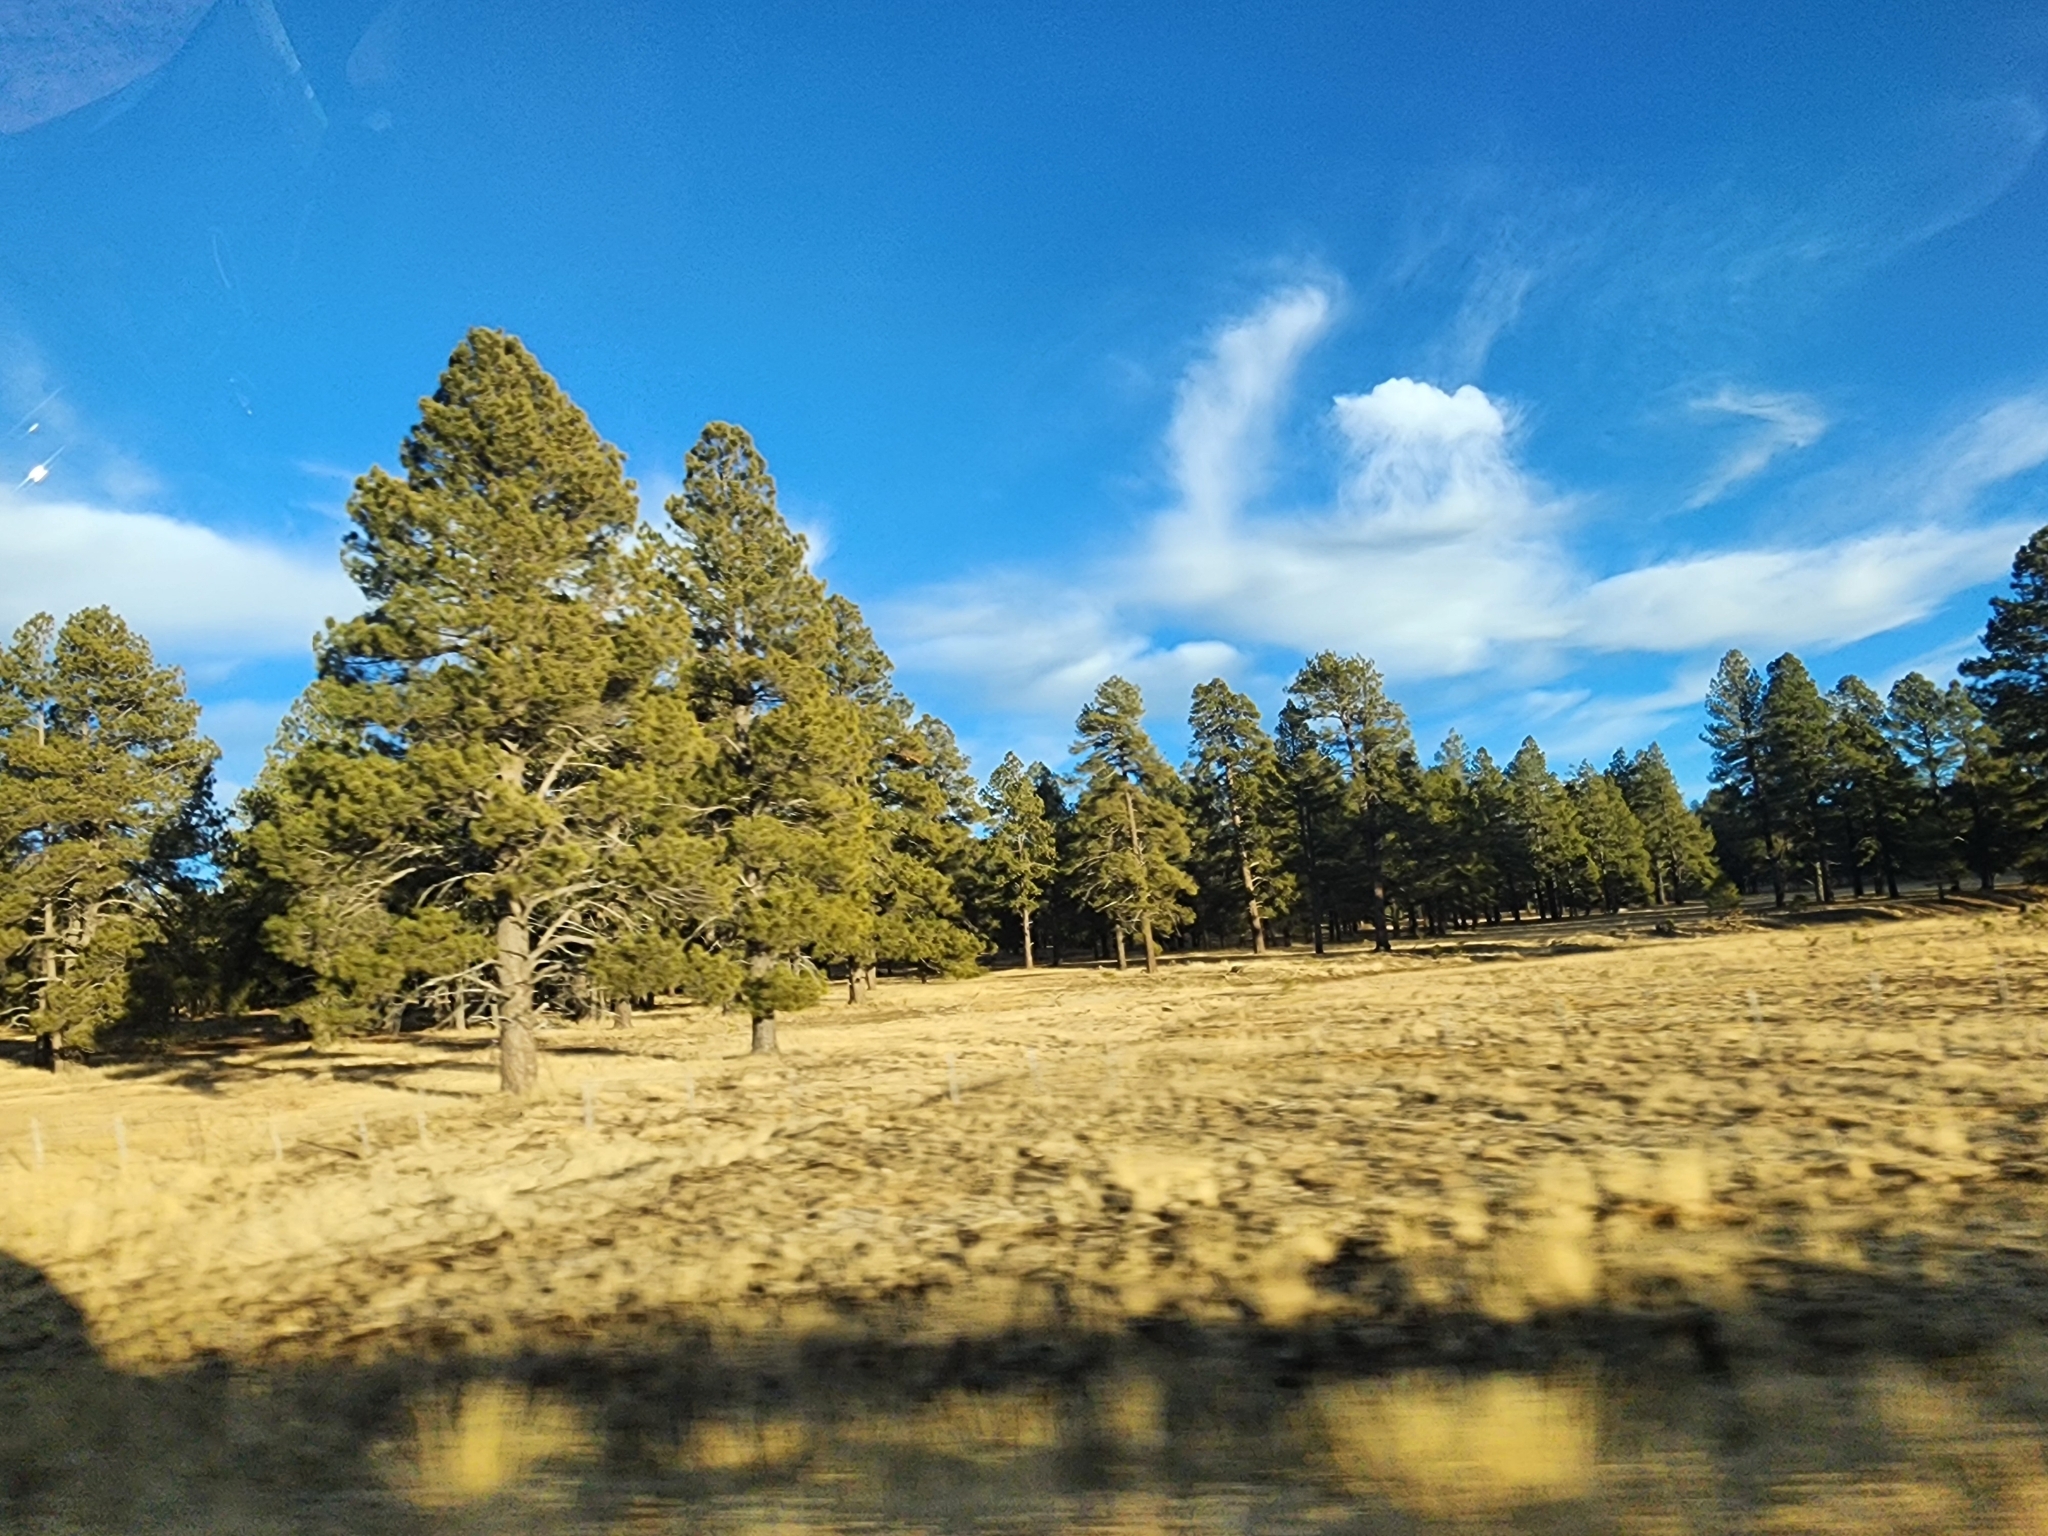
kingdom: Plantae
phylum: Tracheophyta
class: Pinopsida
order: Pinales
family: Pinaceae
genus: Pinus
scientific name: Pinus ponderosa
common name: Western yellow-pine
